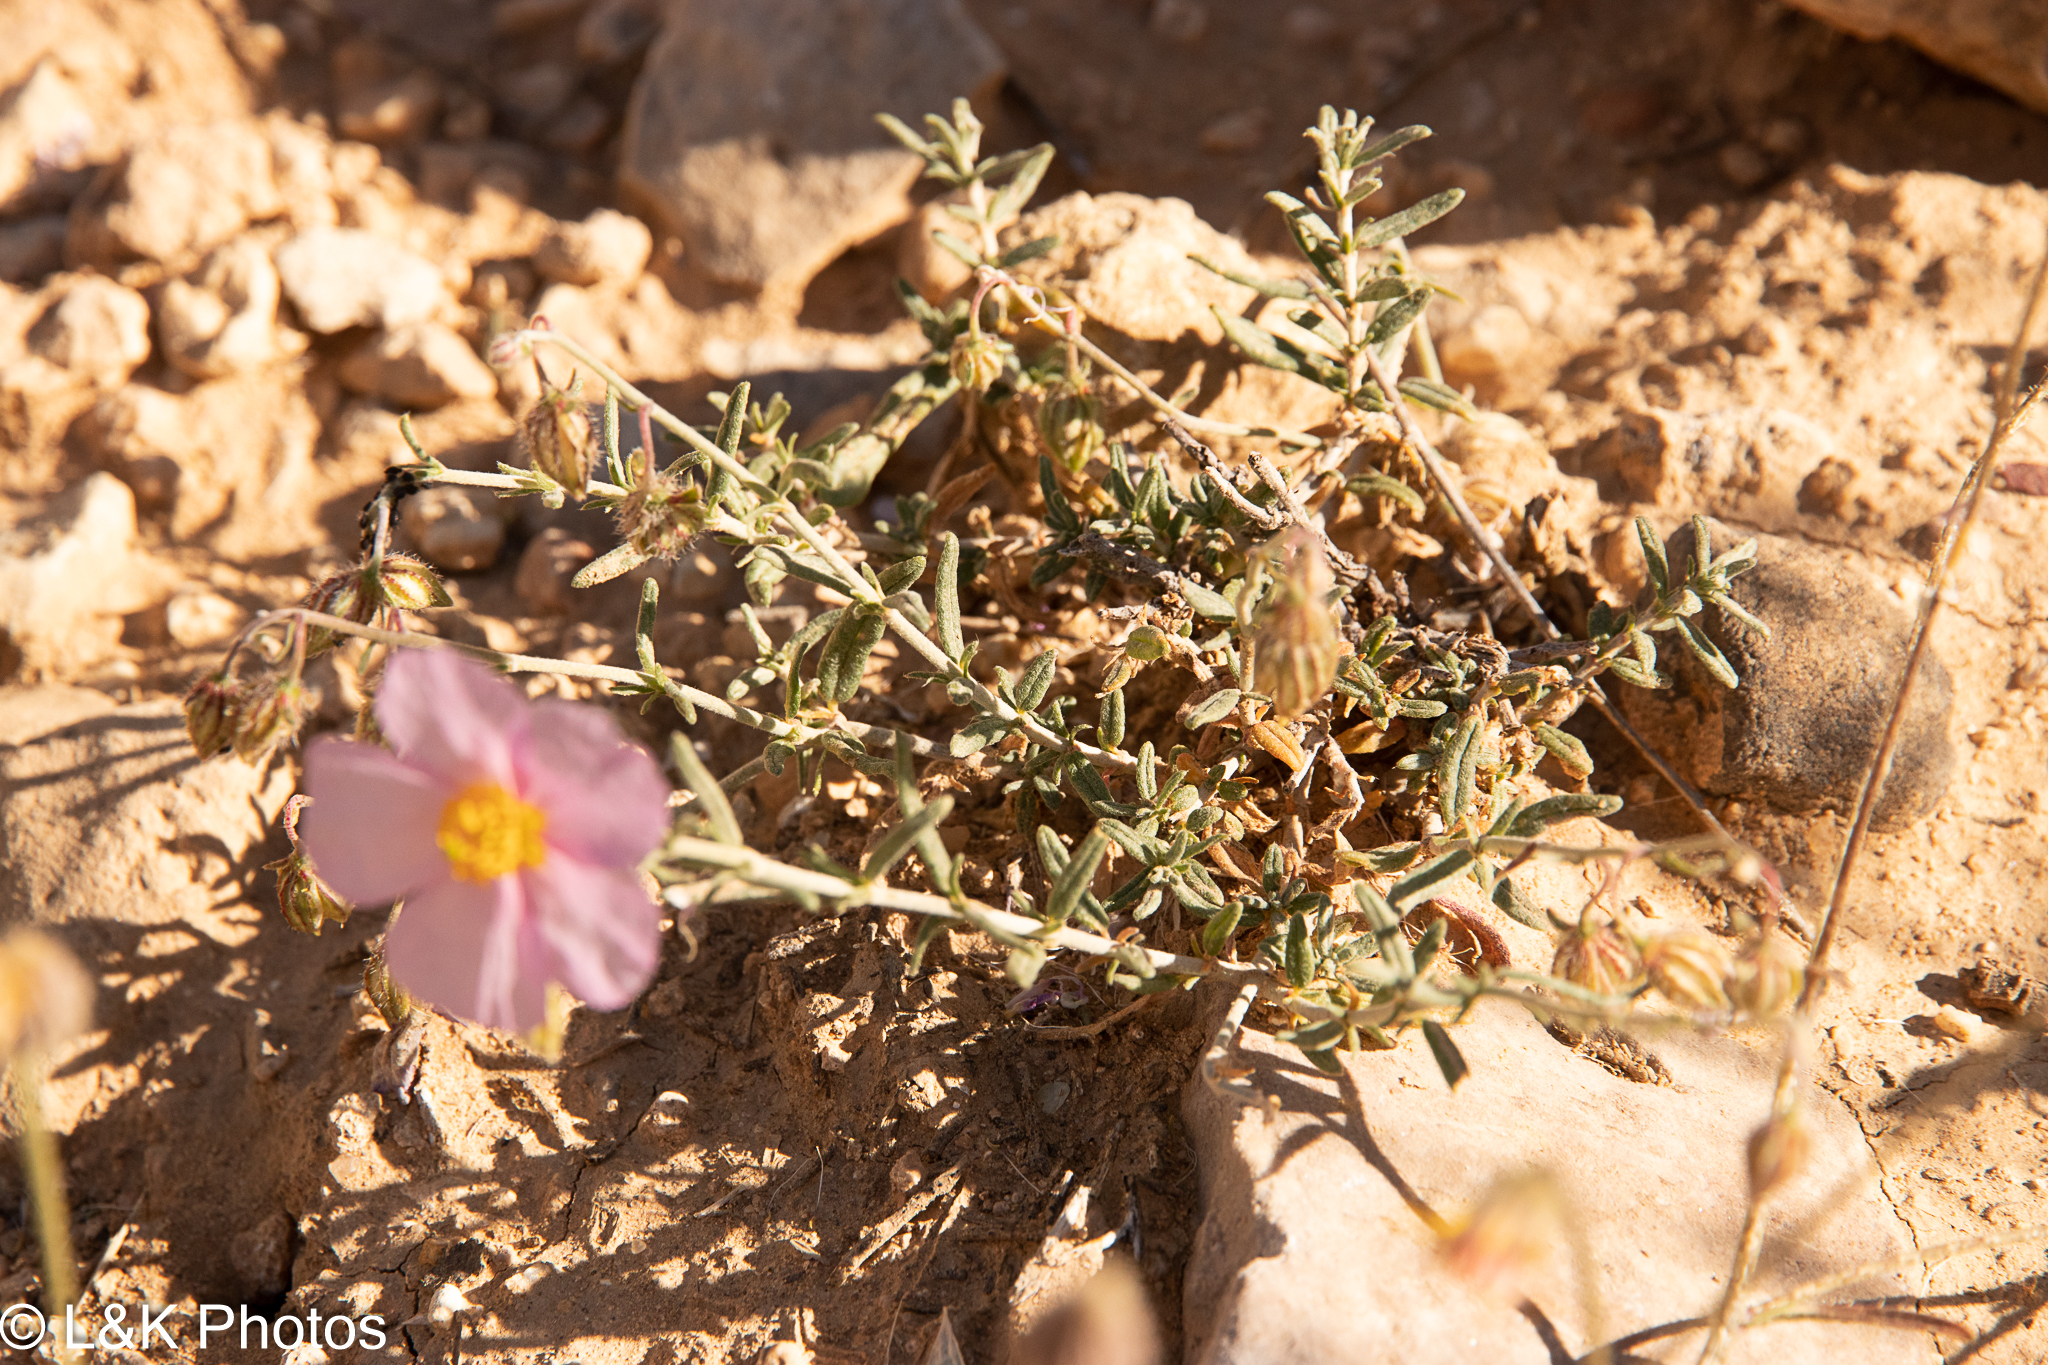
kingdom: Plantae
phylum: Tracheophyta
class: Magnoliopsida
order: Malvales
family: Cistaceae
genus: Helianthemum
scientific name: Helianthemum vesicarium
